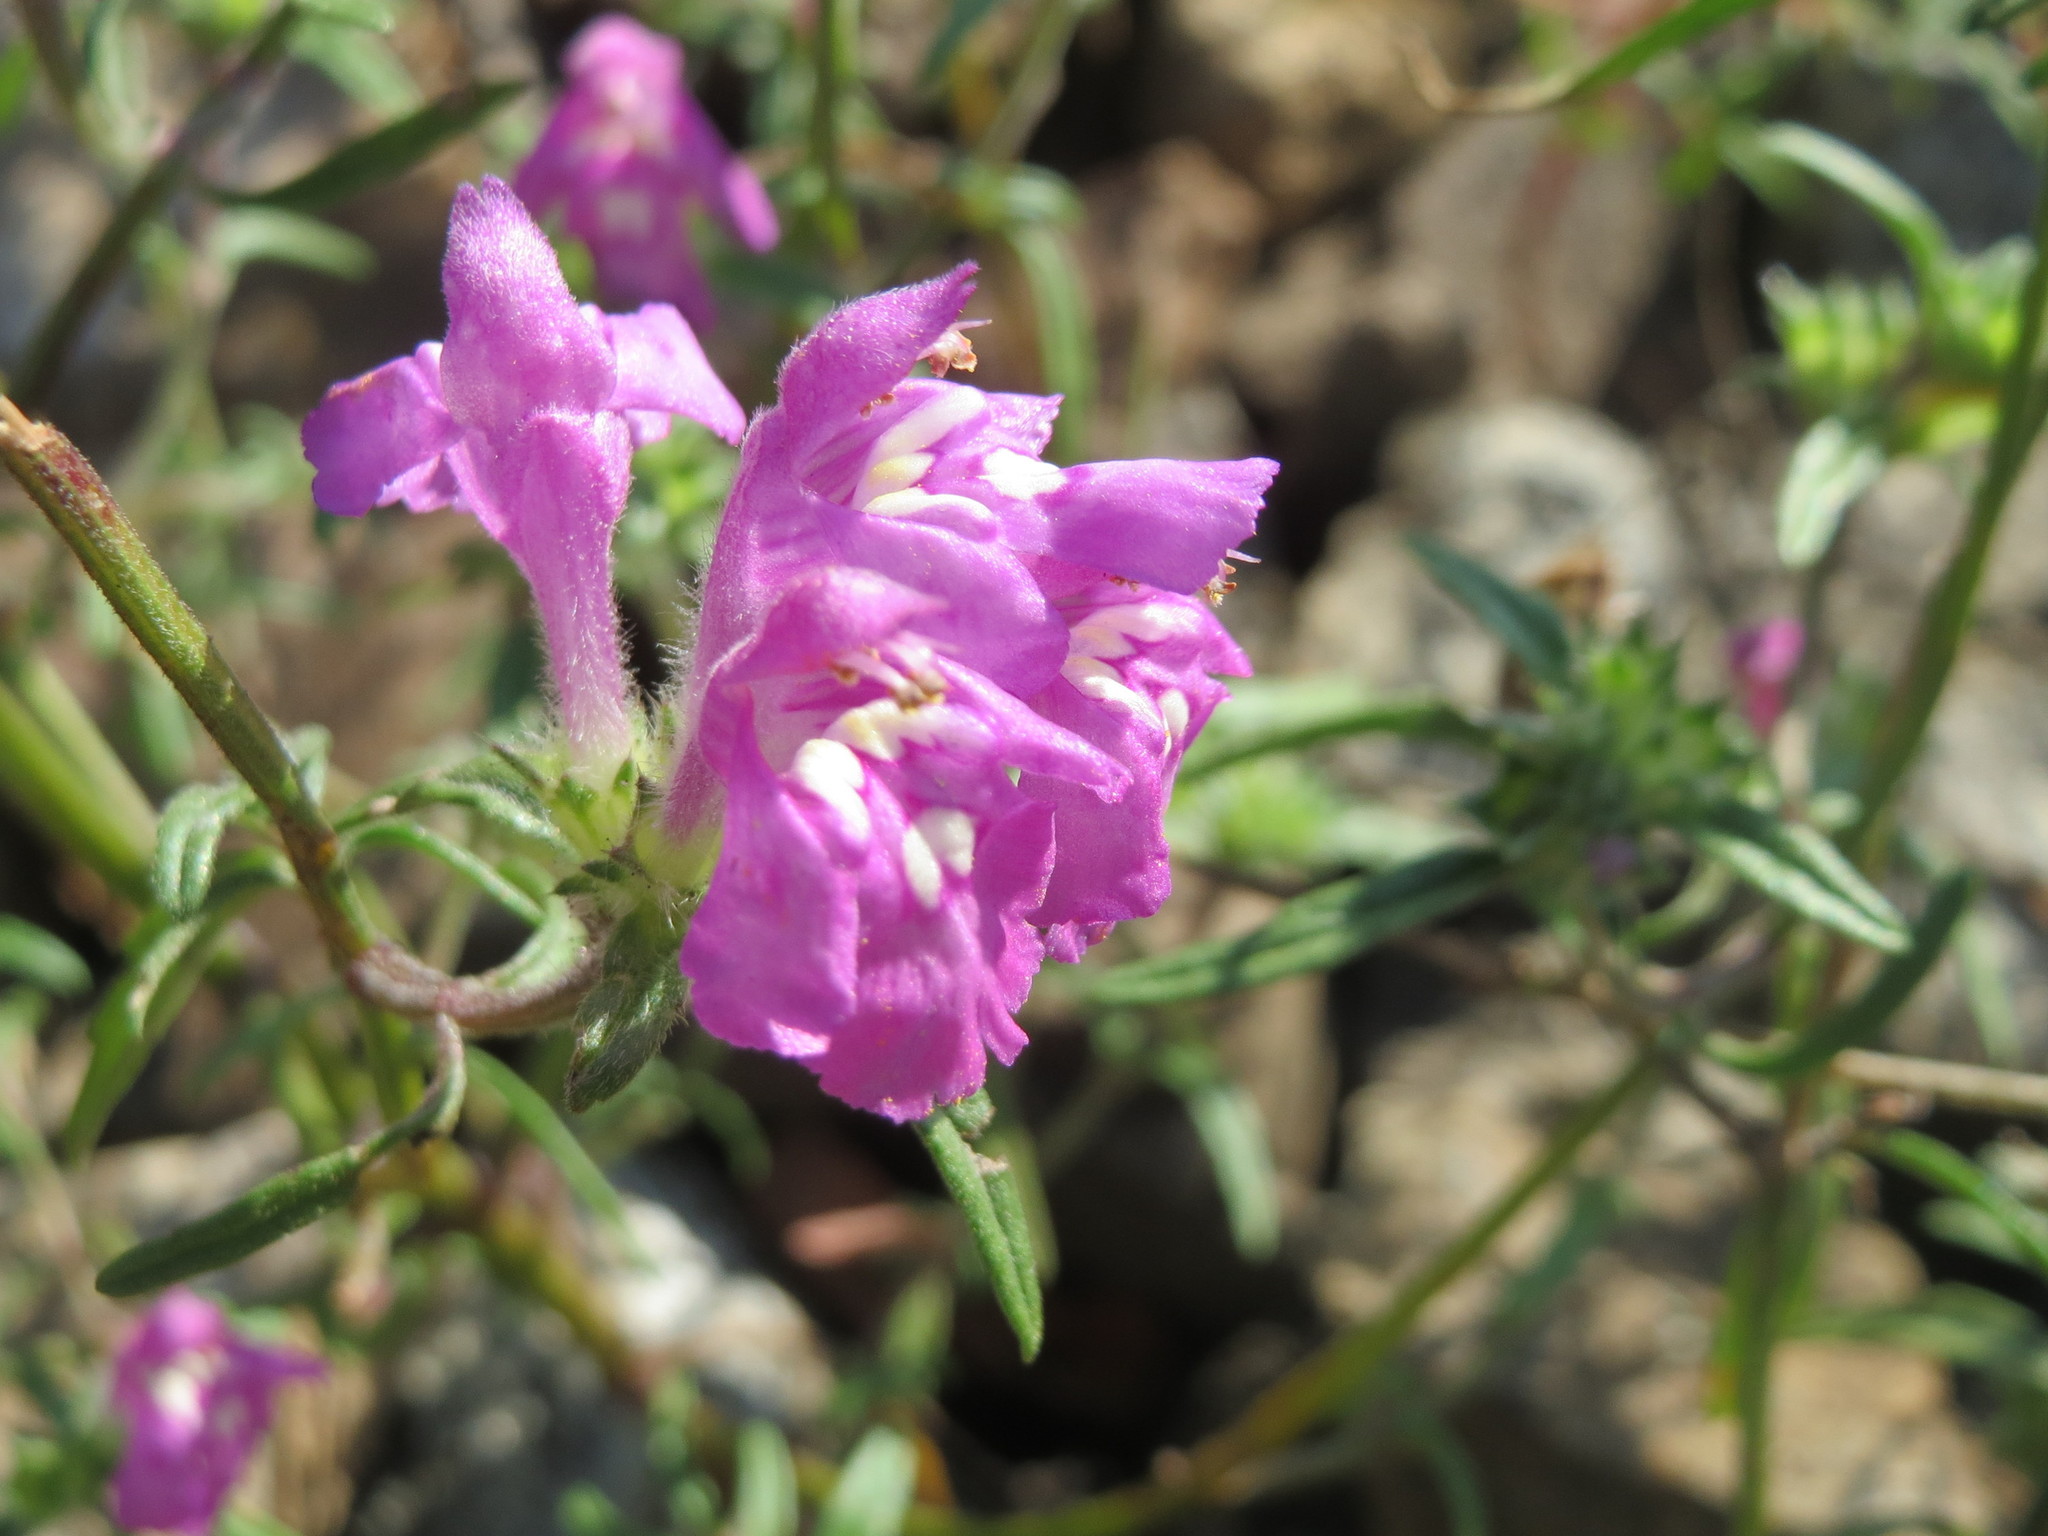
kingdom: Plantae
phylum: Tracheophyta
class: Magnoliopsida
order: Lamiales
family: Lamiaceae
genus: Galeopsis
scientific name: Galeopsis angustifolia
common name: Red hemp-nettle
